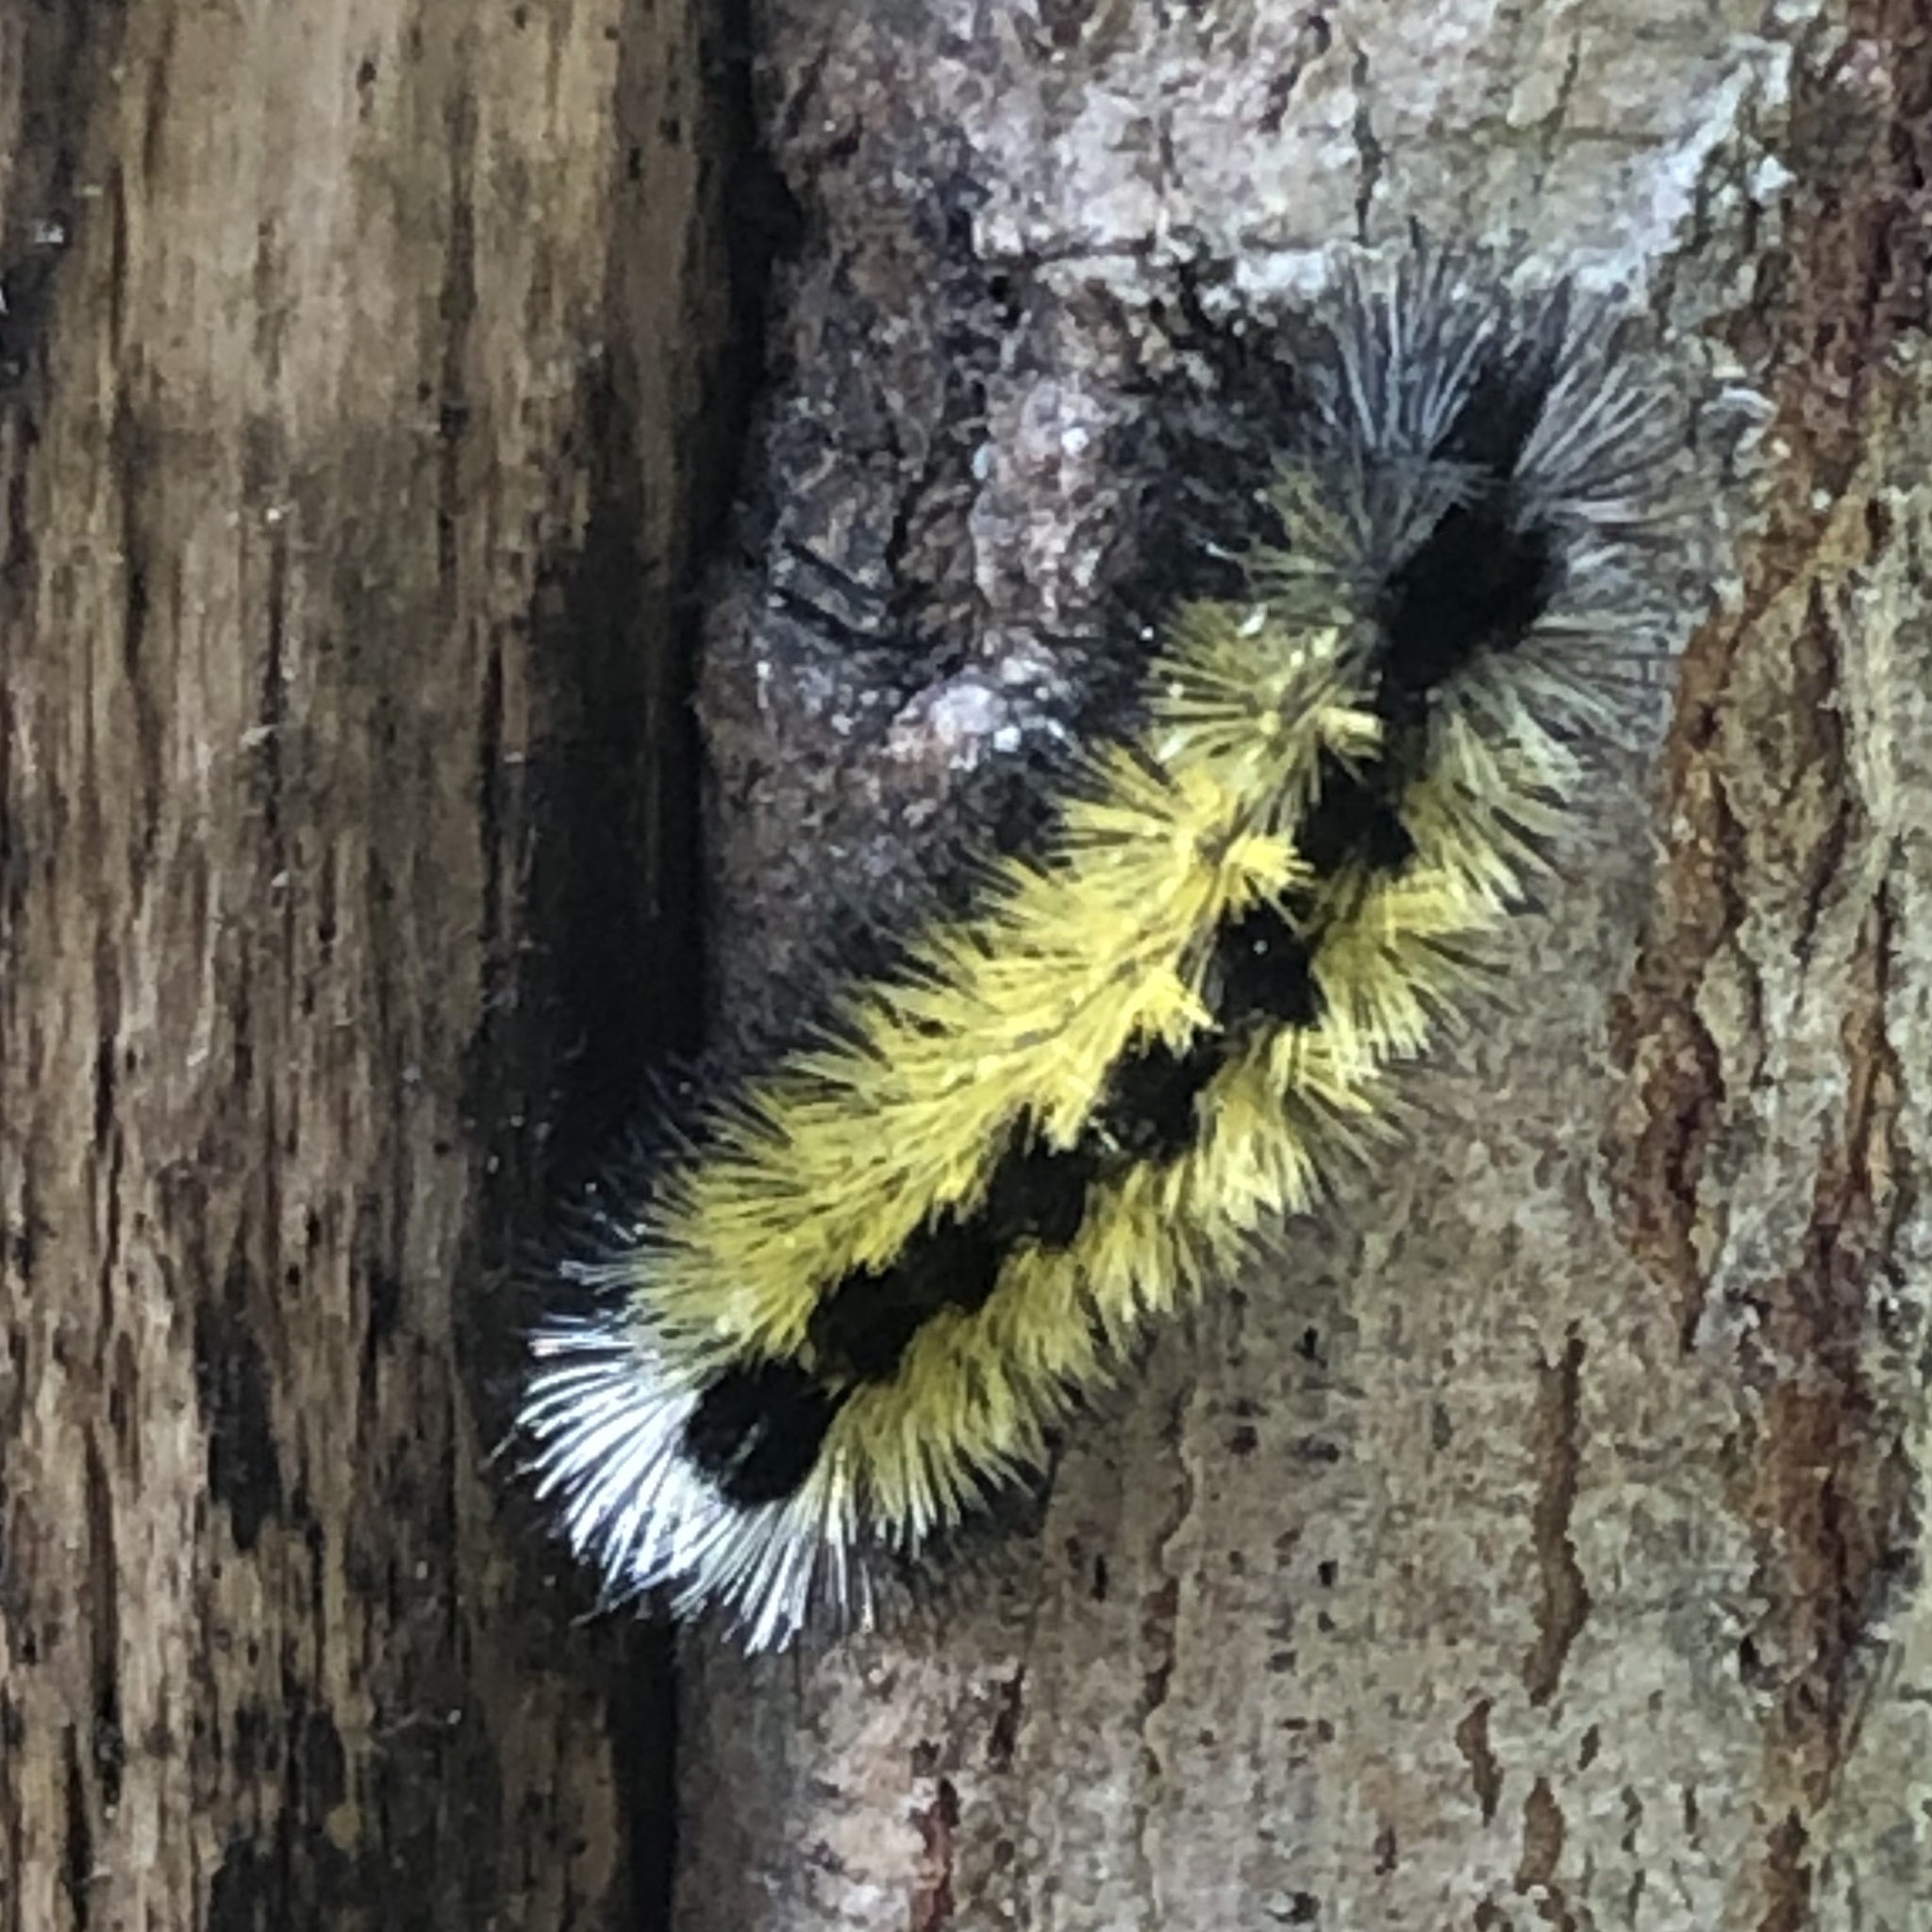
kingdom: Animalia
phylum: Arthropoda
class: Insecta
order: Lepidoptera
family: Erebidae
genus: Ctenucha
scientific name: Ctenucha virginica
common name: Virginia ctenucha moth
